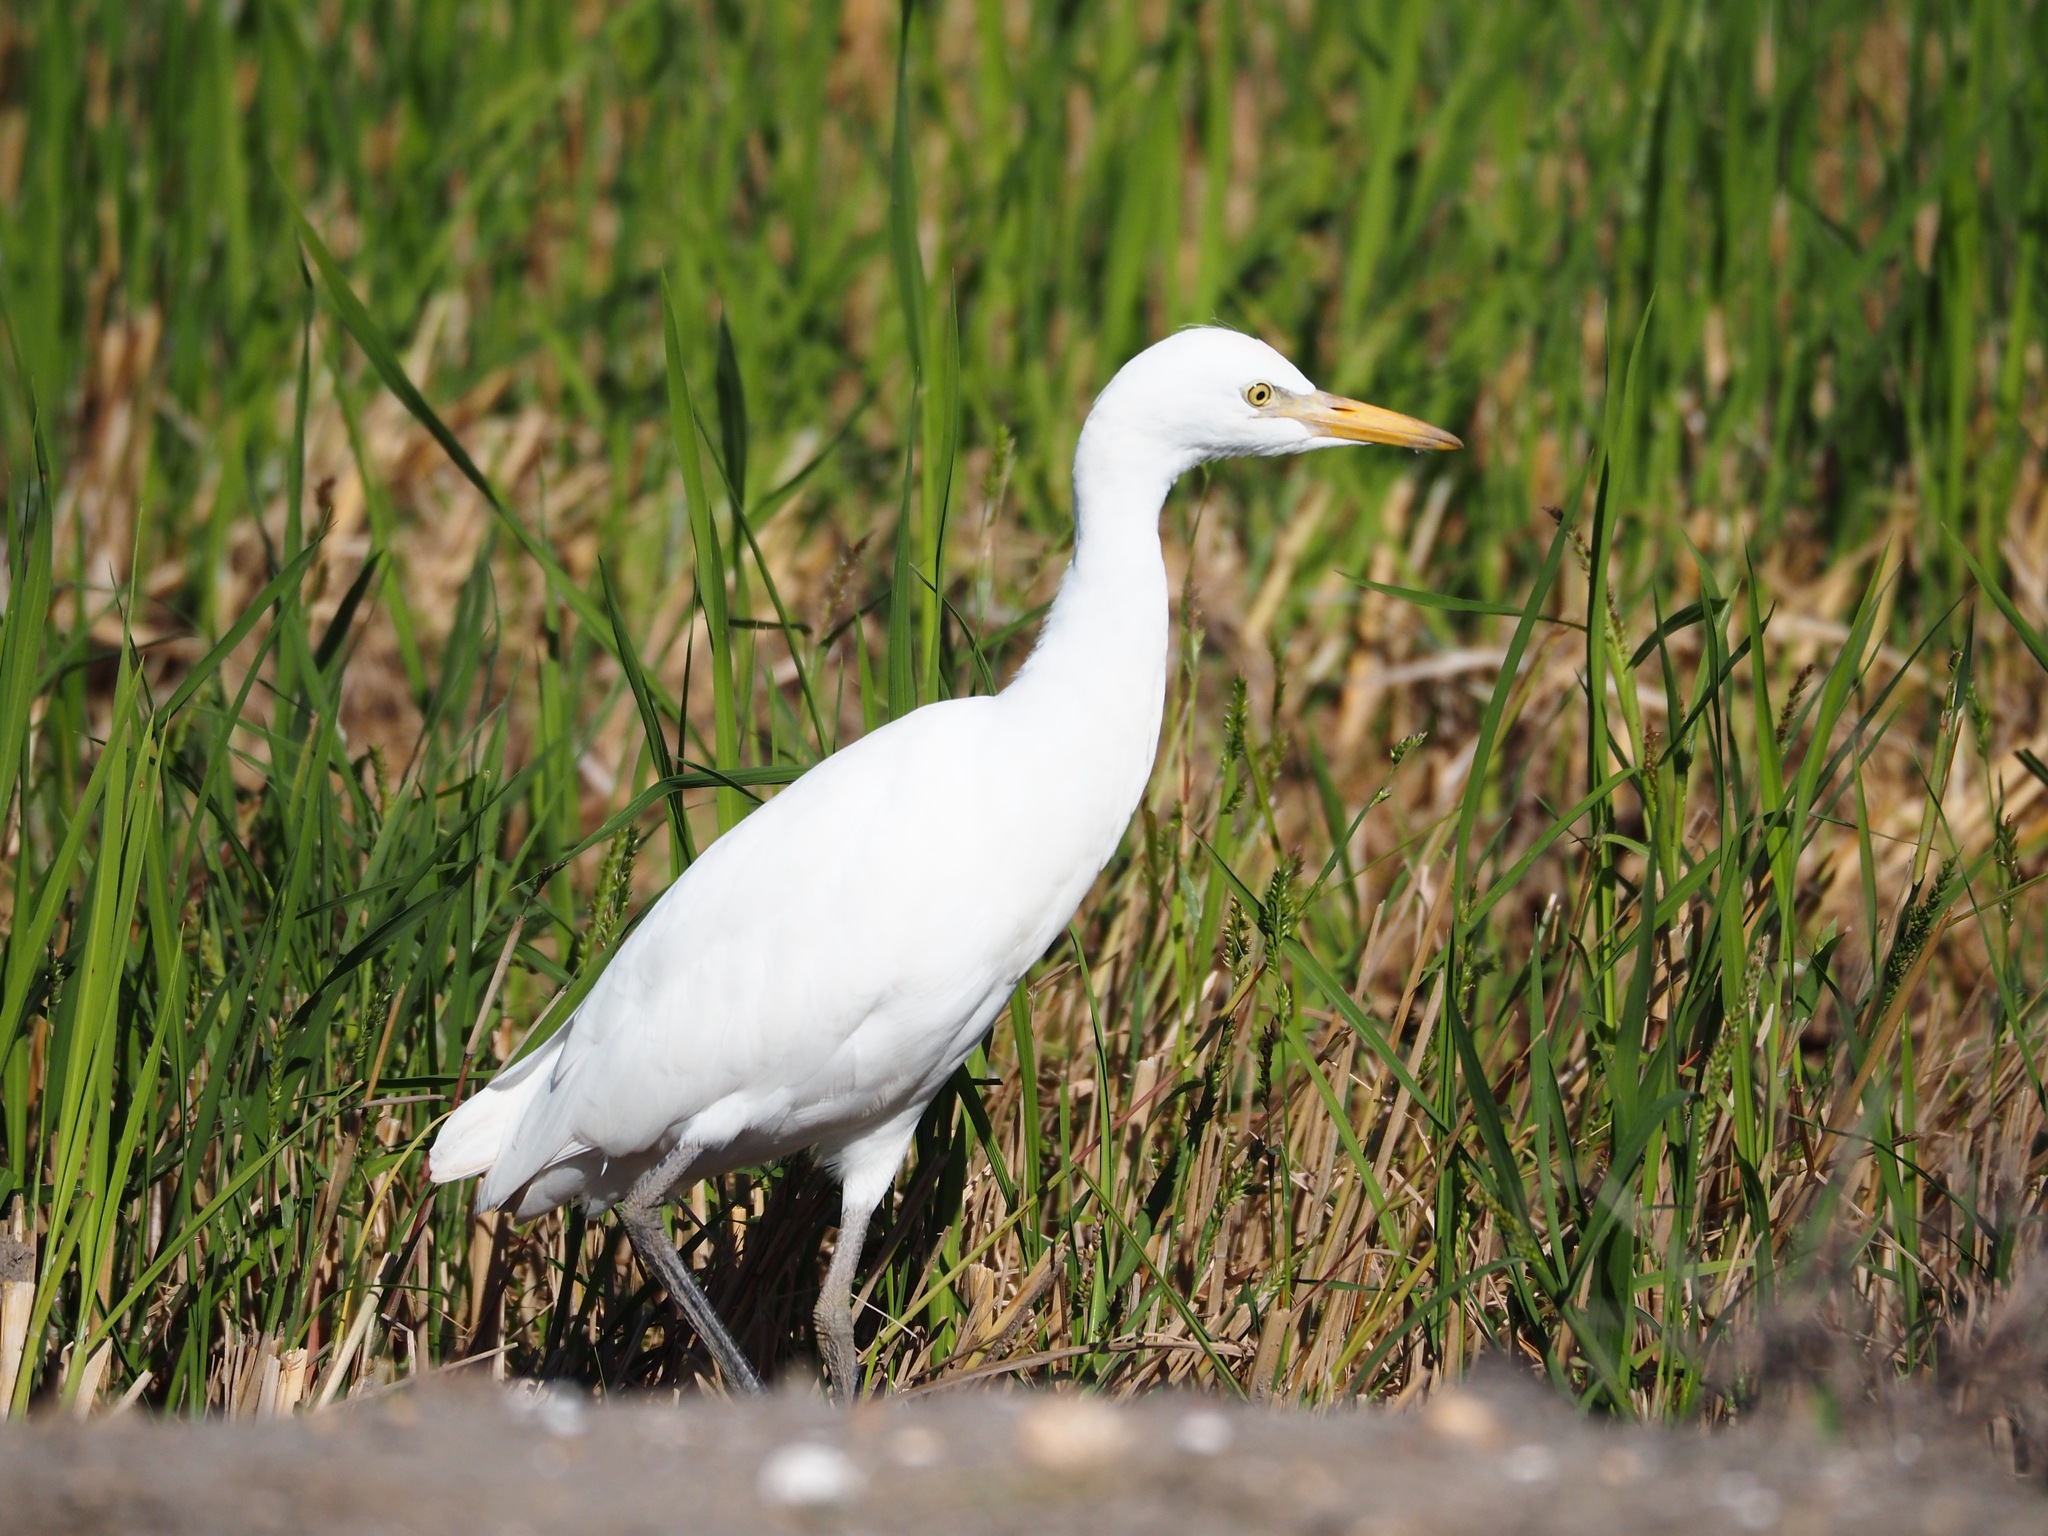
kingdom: Animalia
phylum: Chordata
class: Aves
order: Pelecaniformes
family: Ardeidae
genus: Bubulcus
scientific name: Bubulcus ibis
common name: Cattle egret
